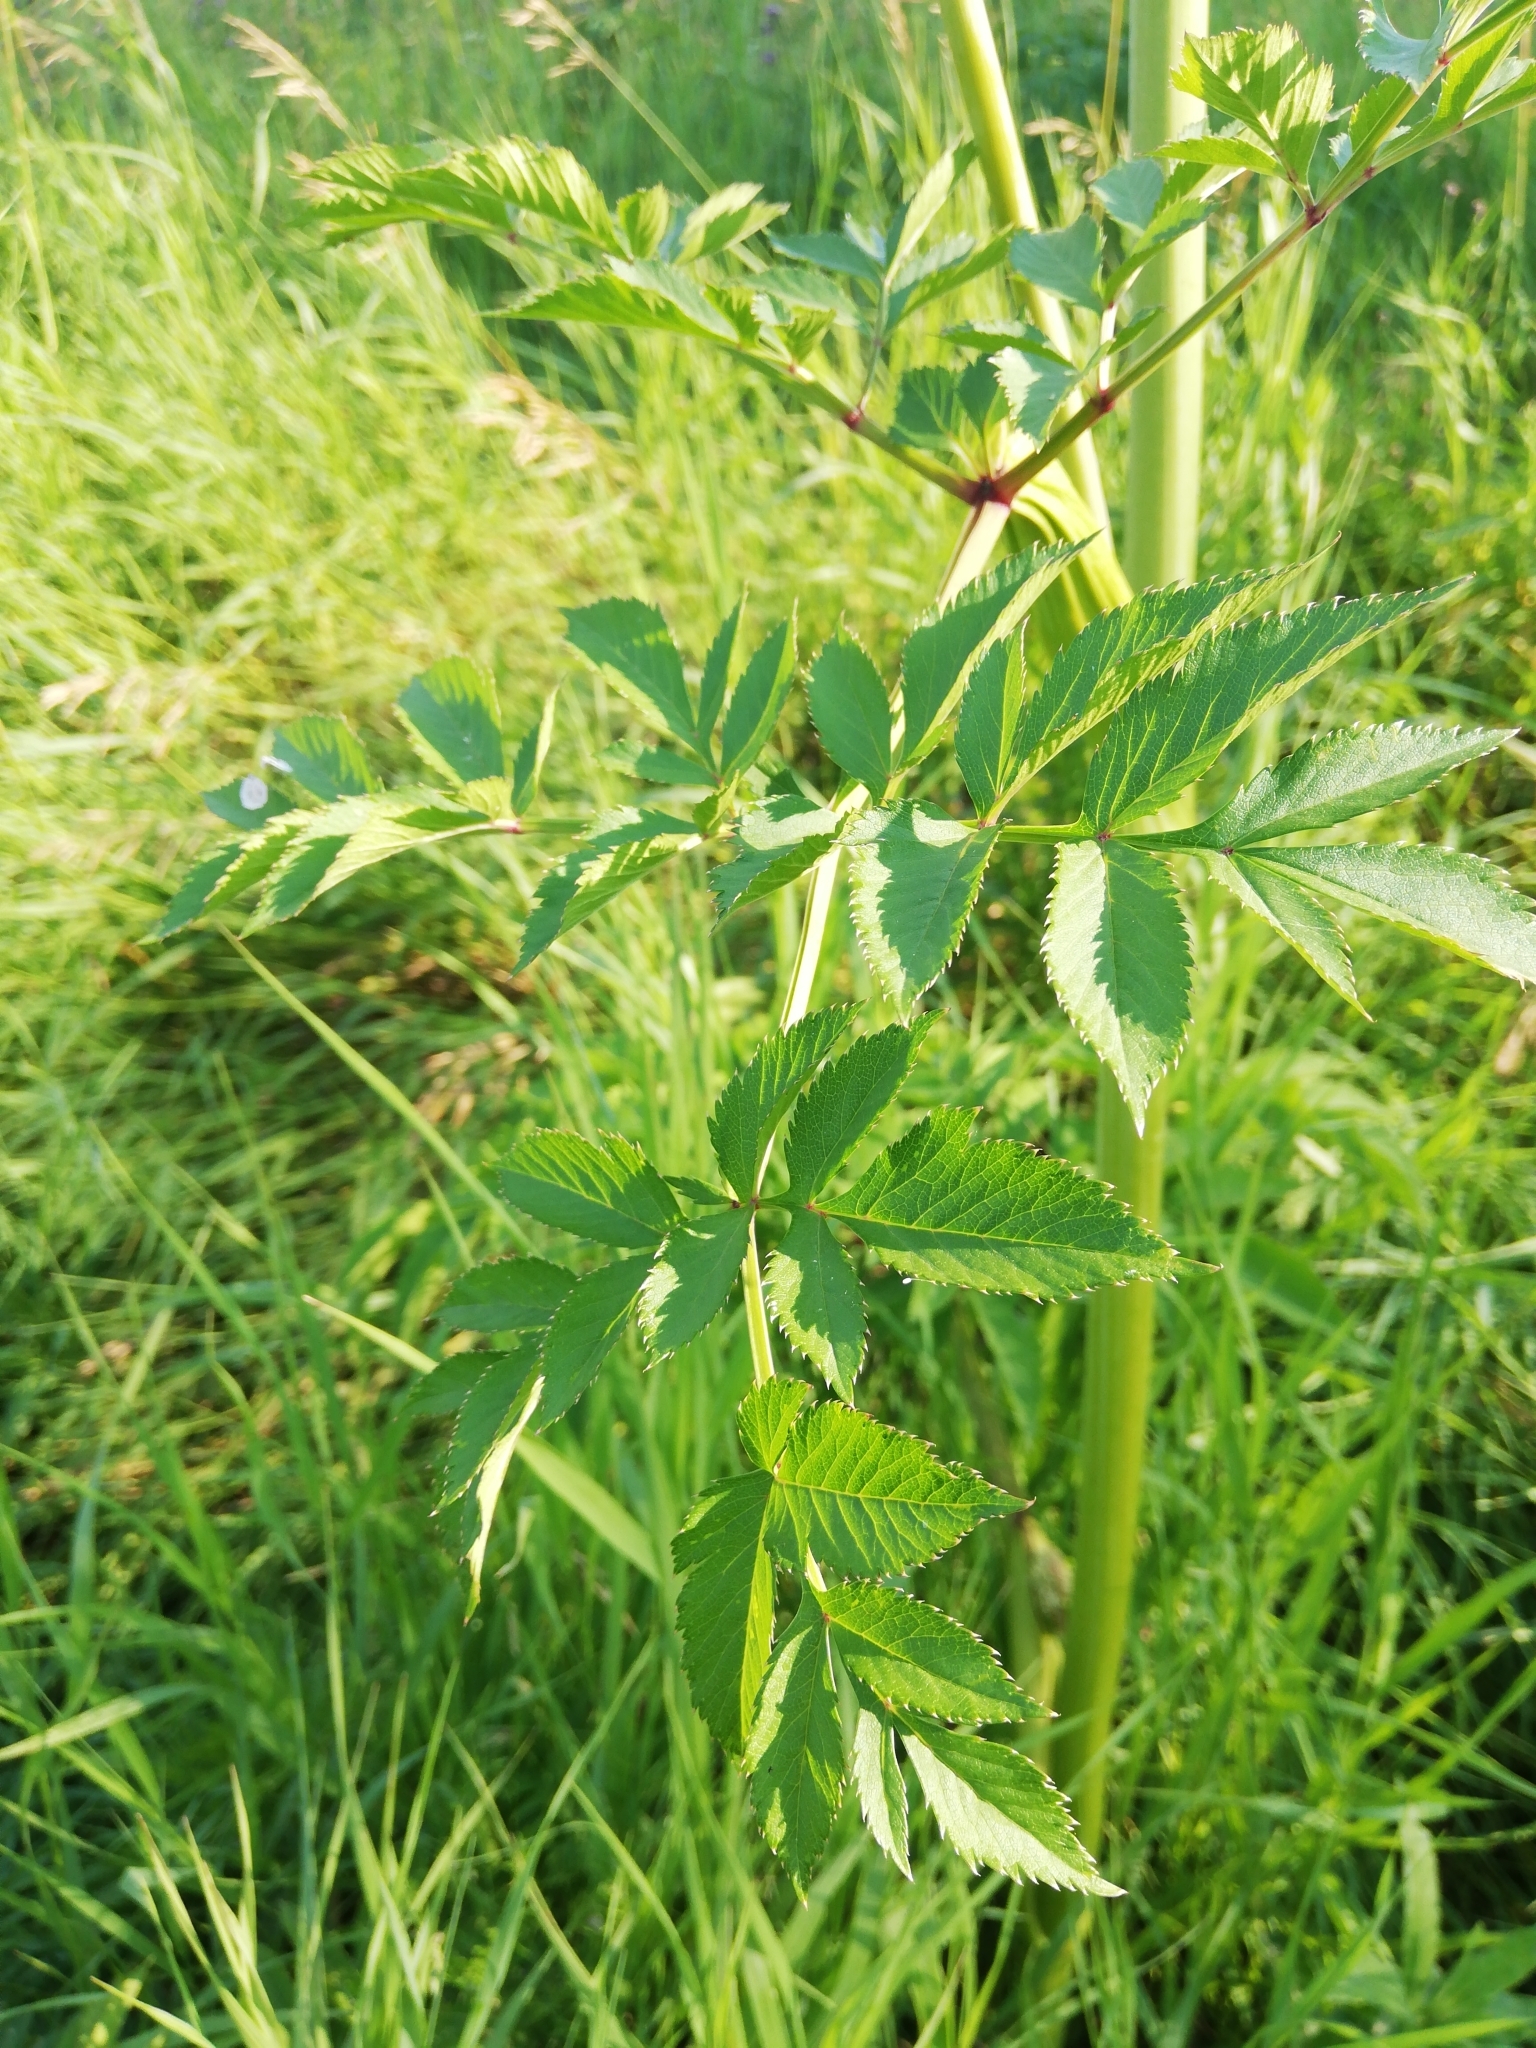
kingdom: Plantae
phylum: Tracheophyta
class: Magnoliopsida
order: Apiales
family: Apiaceae
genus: Angelica
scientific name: Angelica sylvestris
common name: Wild angelica
